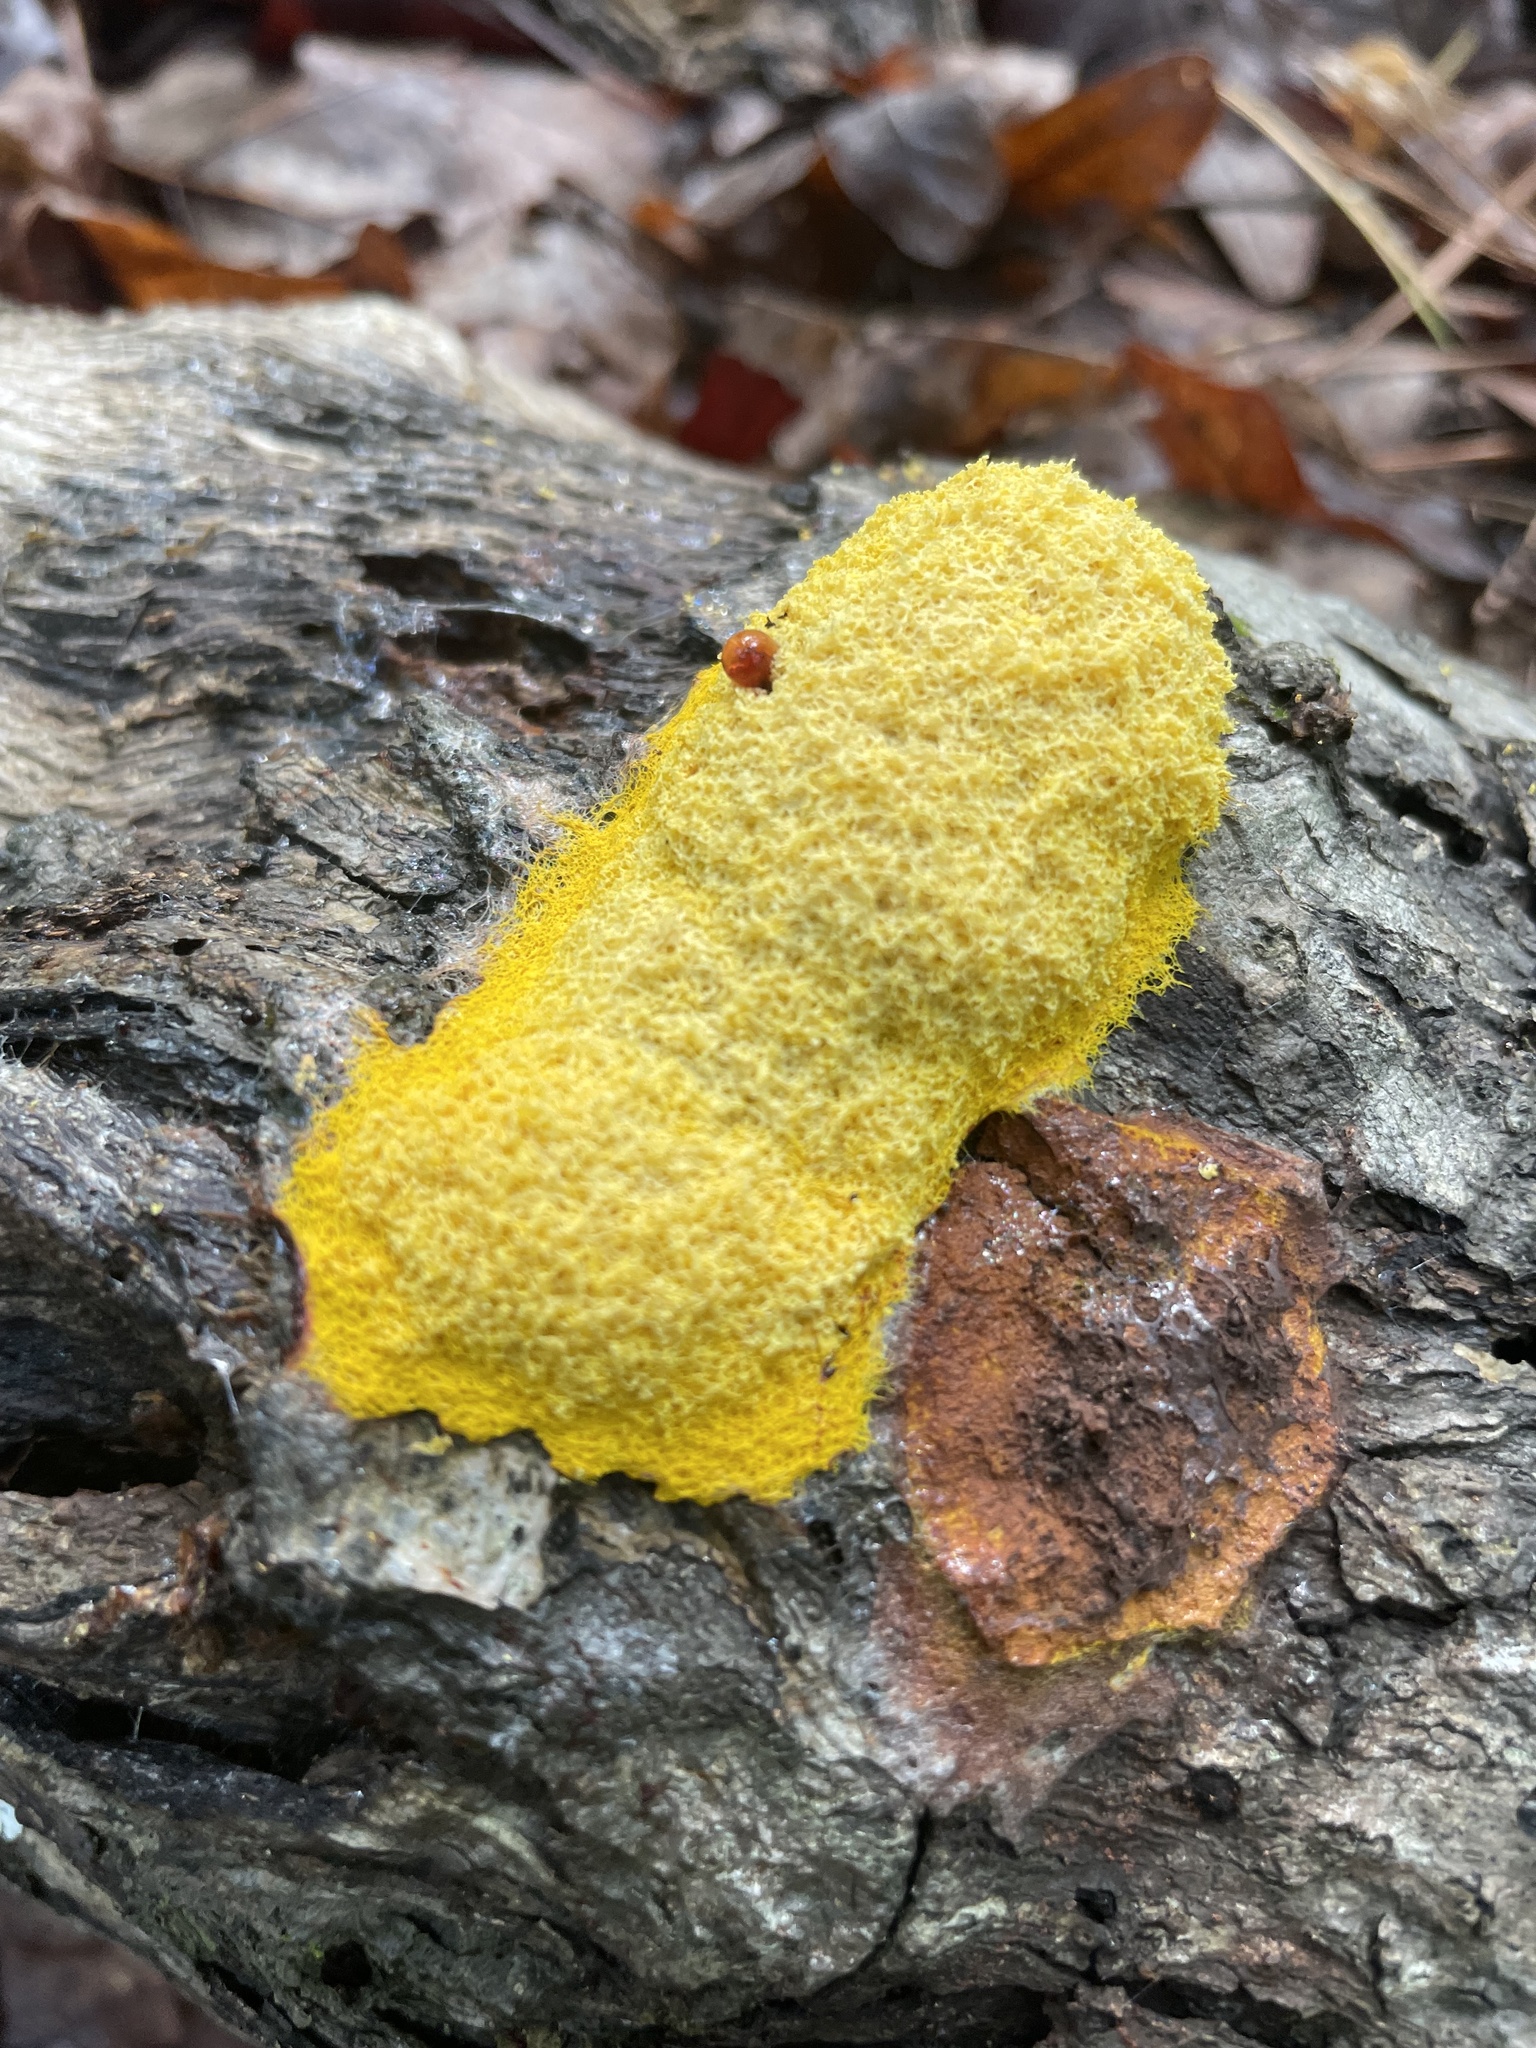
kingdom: Protozoa
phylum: Mycetozoa
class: Myxomycetes
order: Physarales
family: Physaraceae
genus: Fuligo
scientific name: Fuligo septica
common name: Dog vomit slime mold
